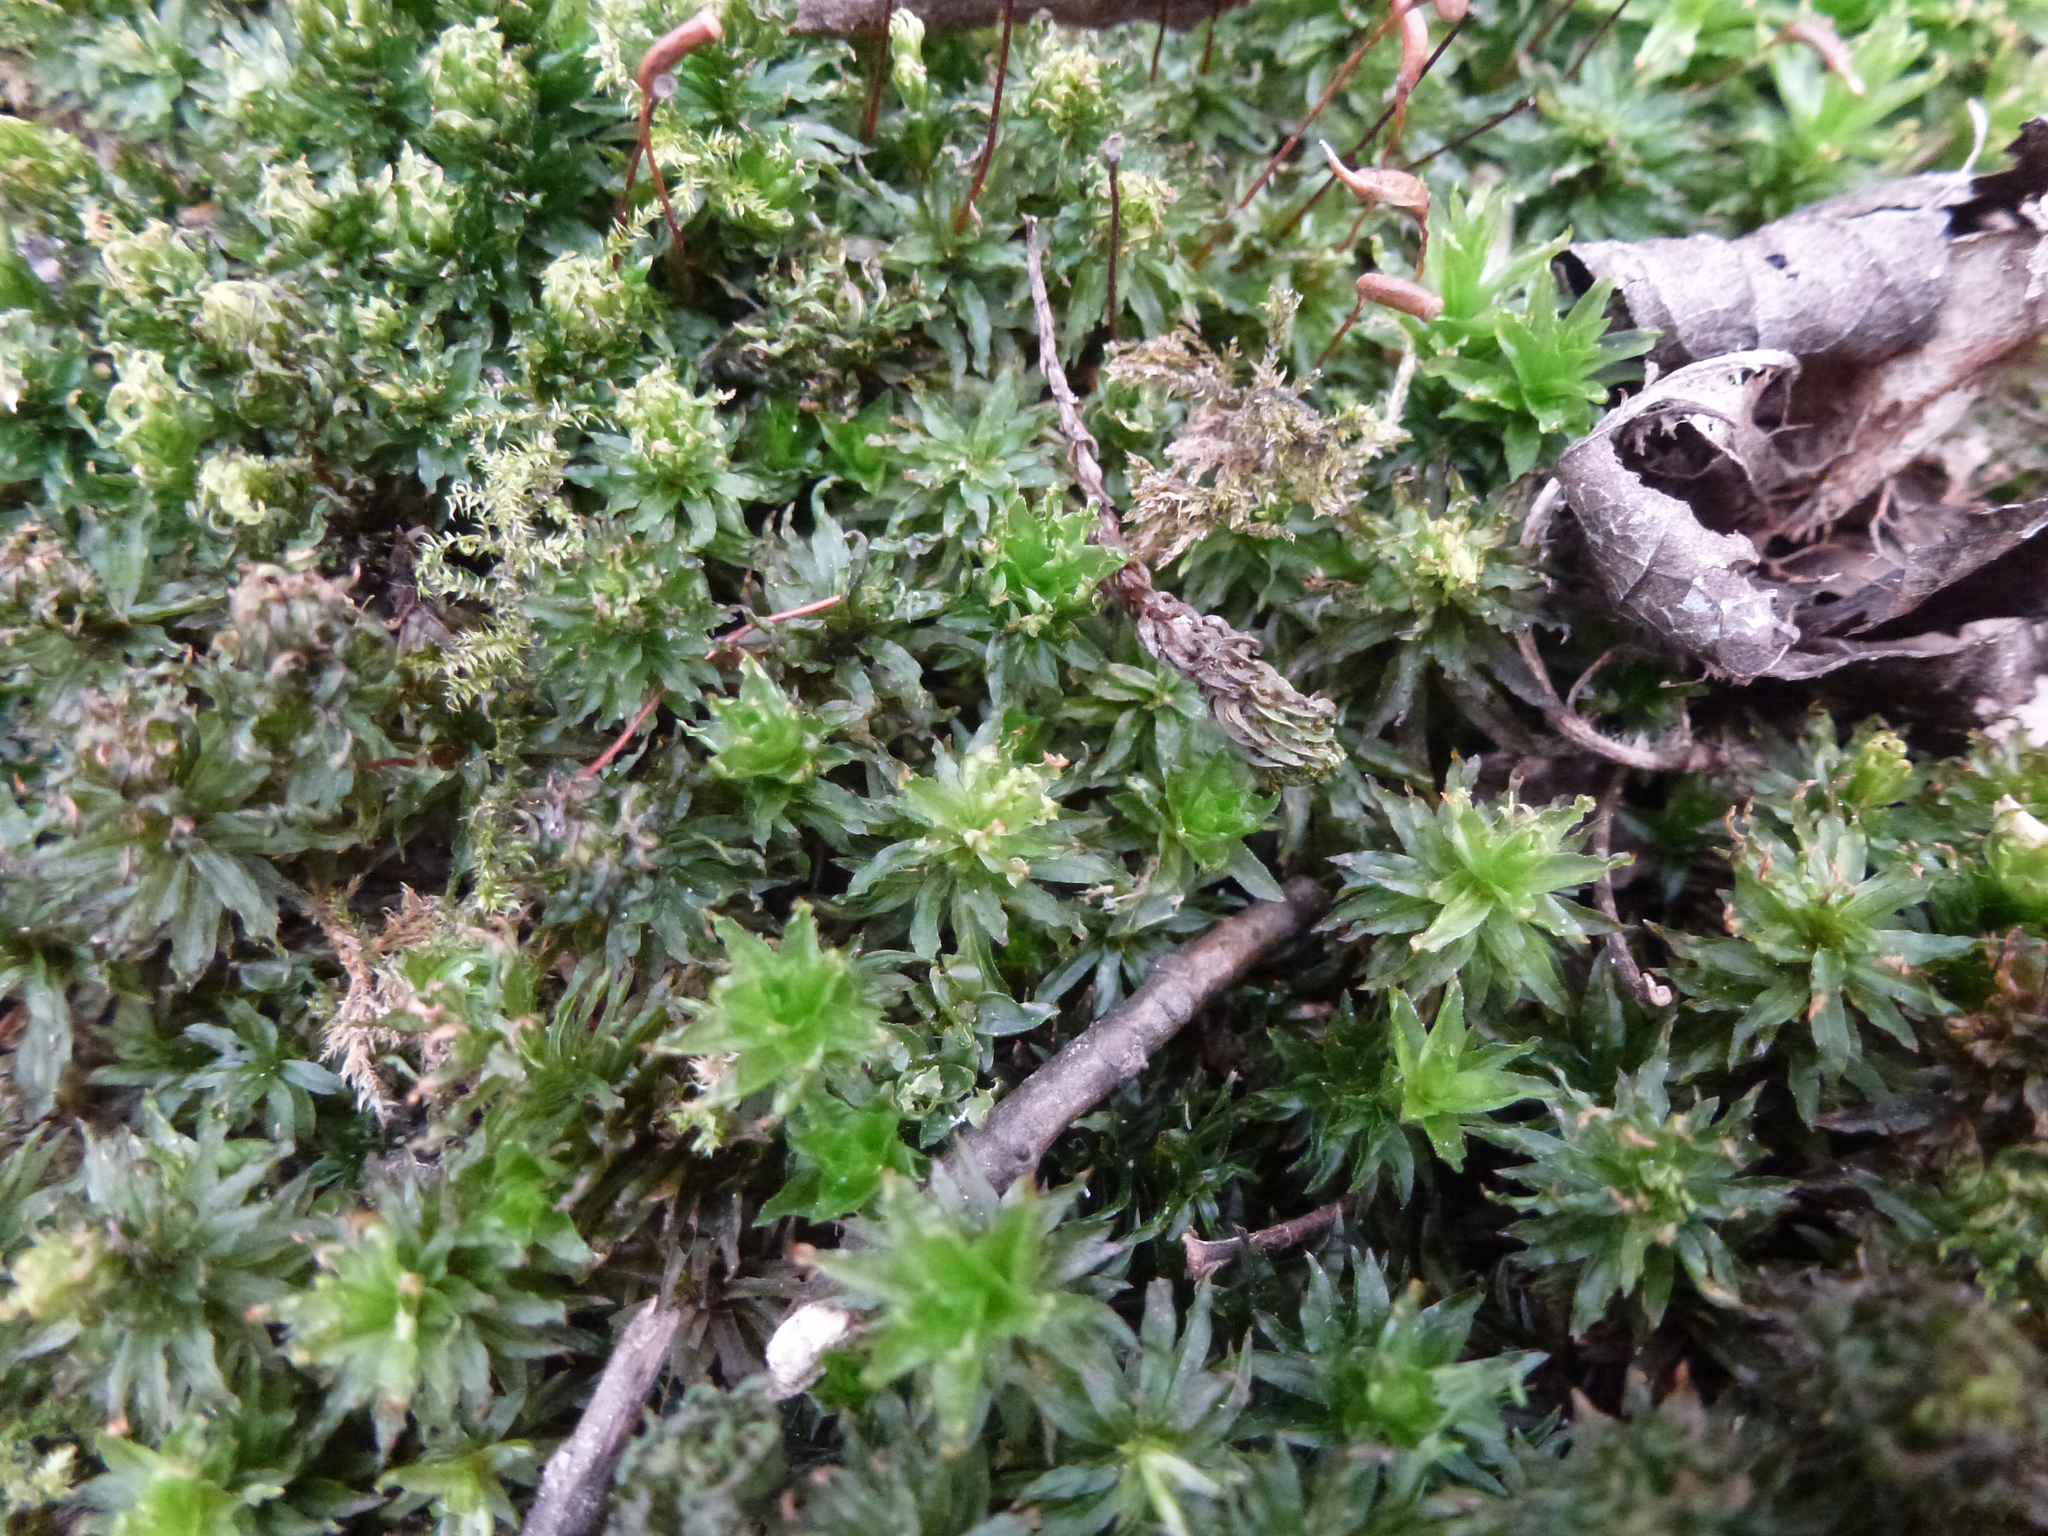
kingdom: Plantae
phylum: Bryophyta
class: Polytrichopsida
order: Polytrichales
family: Polytrichaceae
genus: Atrichum
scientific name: Atrichum undulatum
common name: Common smoothcap
